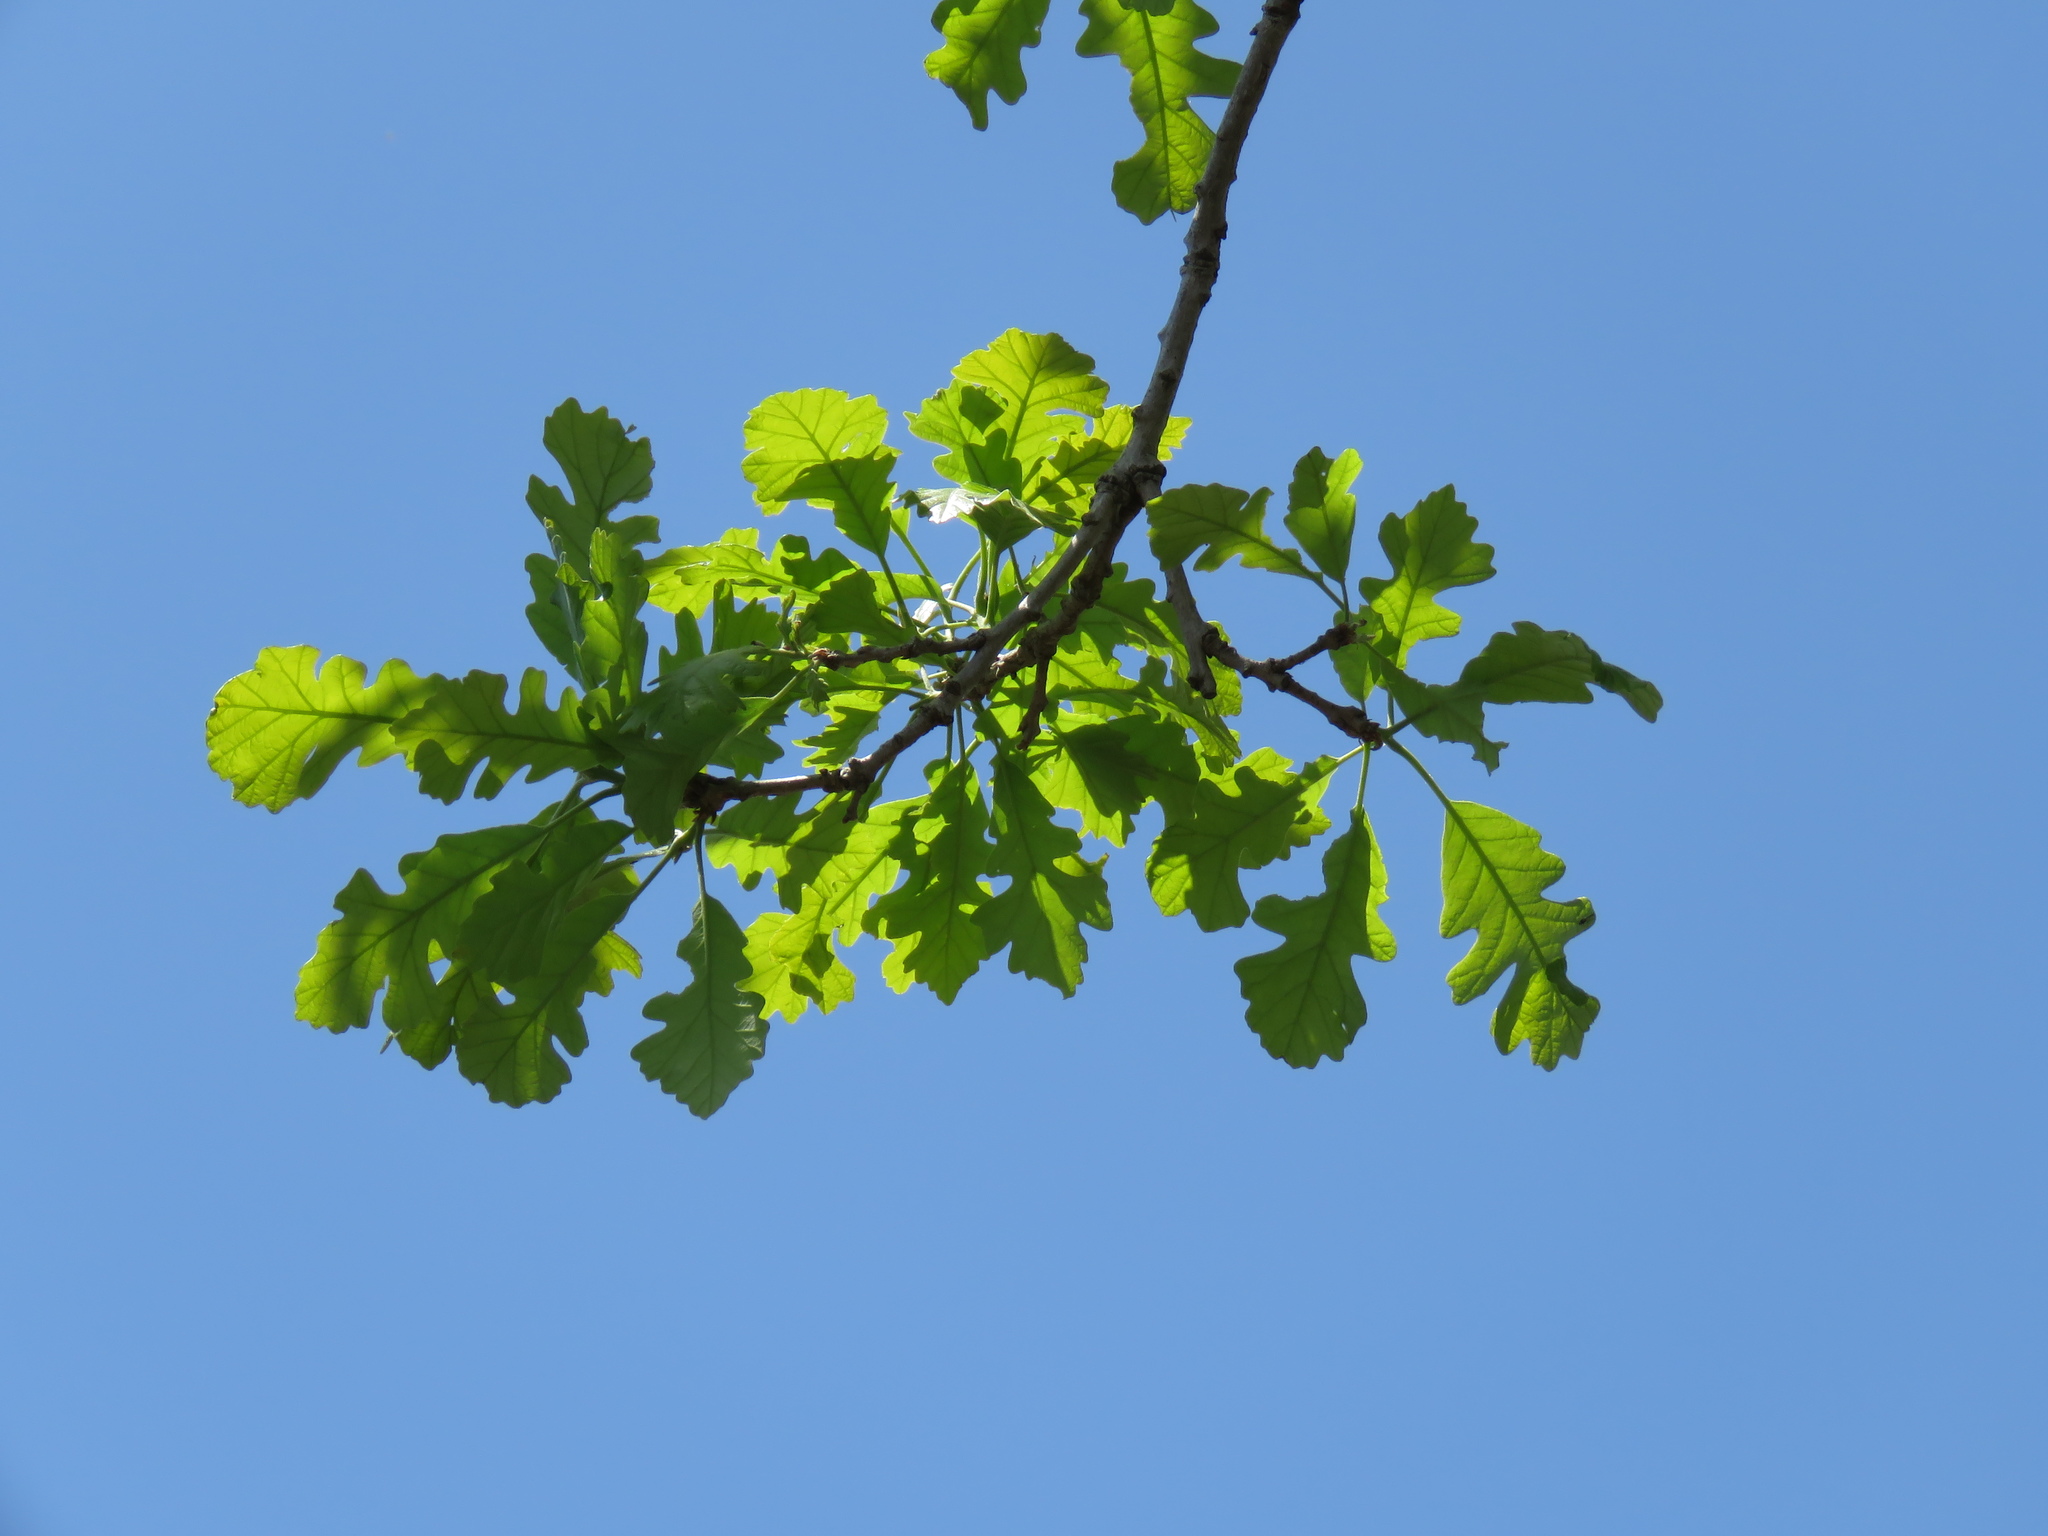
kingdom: Plantae
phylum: Tracheophyta
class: Magnoliopsida
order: Fagales
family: Fagaceae
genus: Quercus
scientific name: Quercus macrocarpa
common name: Bur oak
